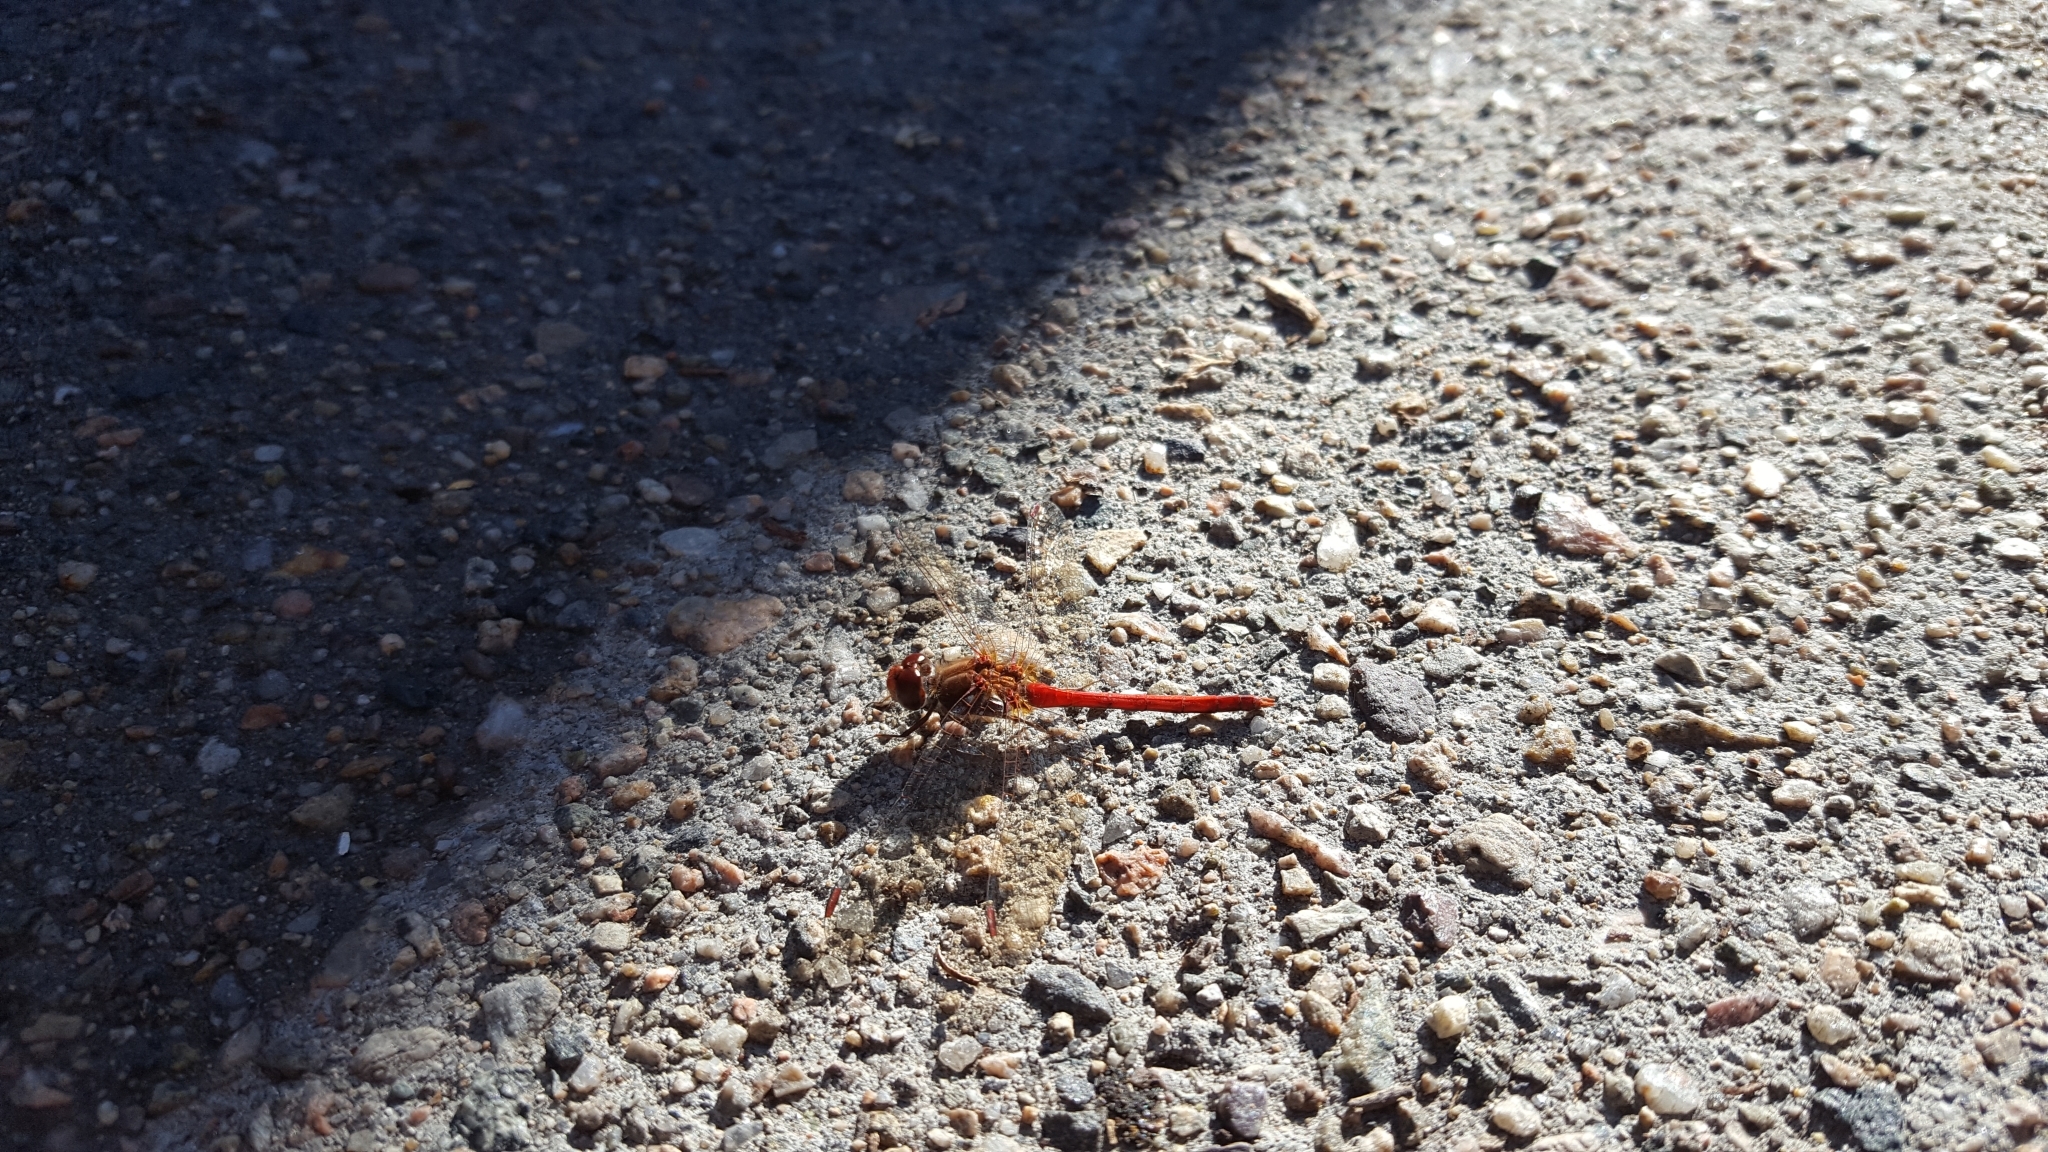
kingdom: Animalia
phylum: Arthropoda
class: Insecta
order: Odonata
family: Libellulidae
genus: Sympetrum
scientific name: Sympetrum vicinum
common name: Autumn meadowhawk
